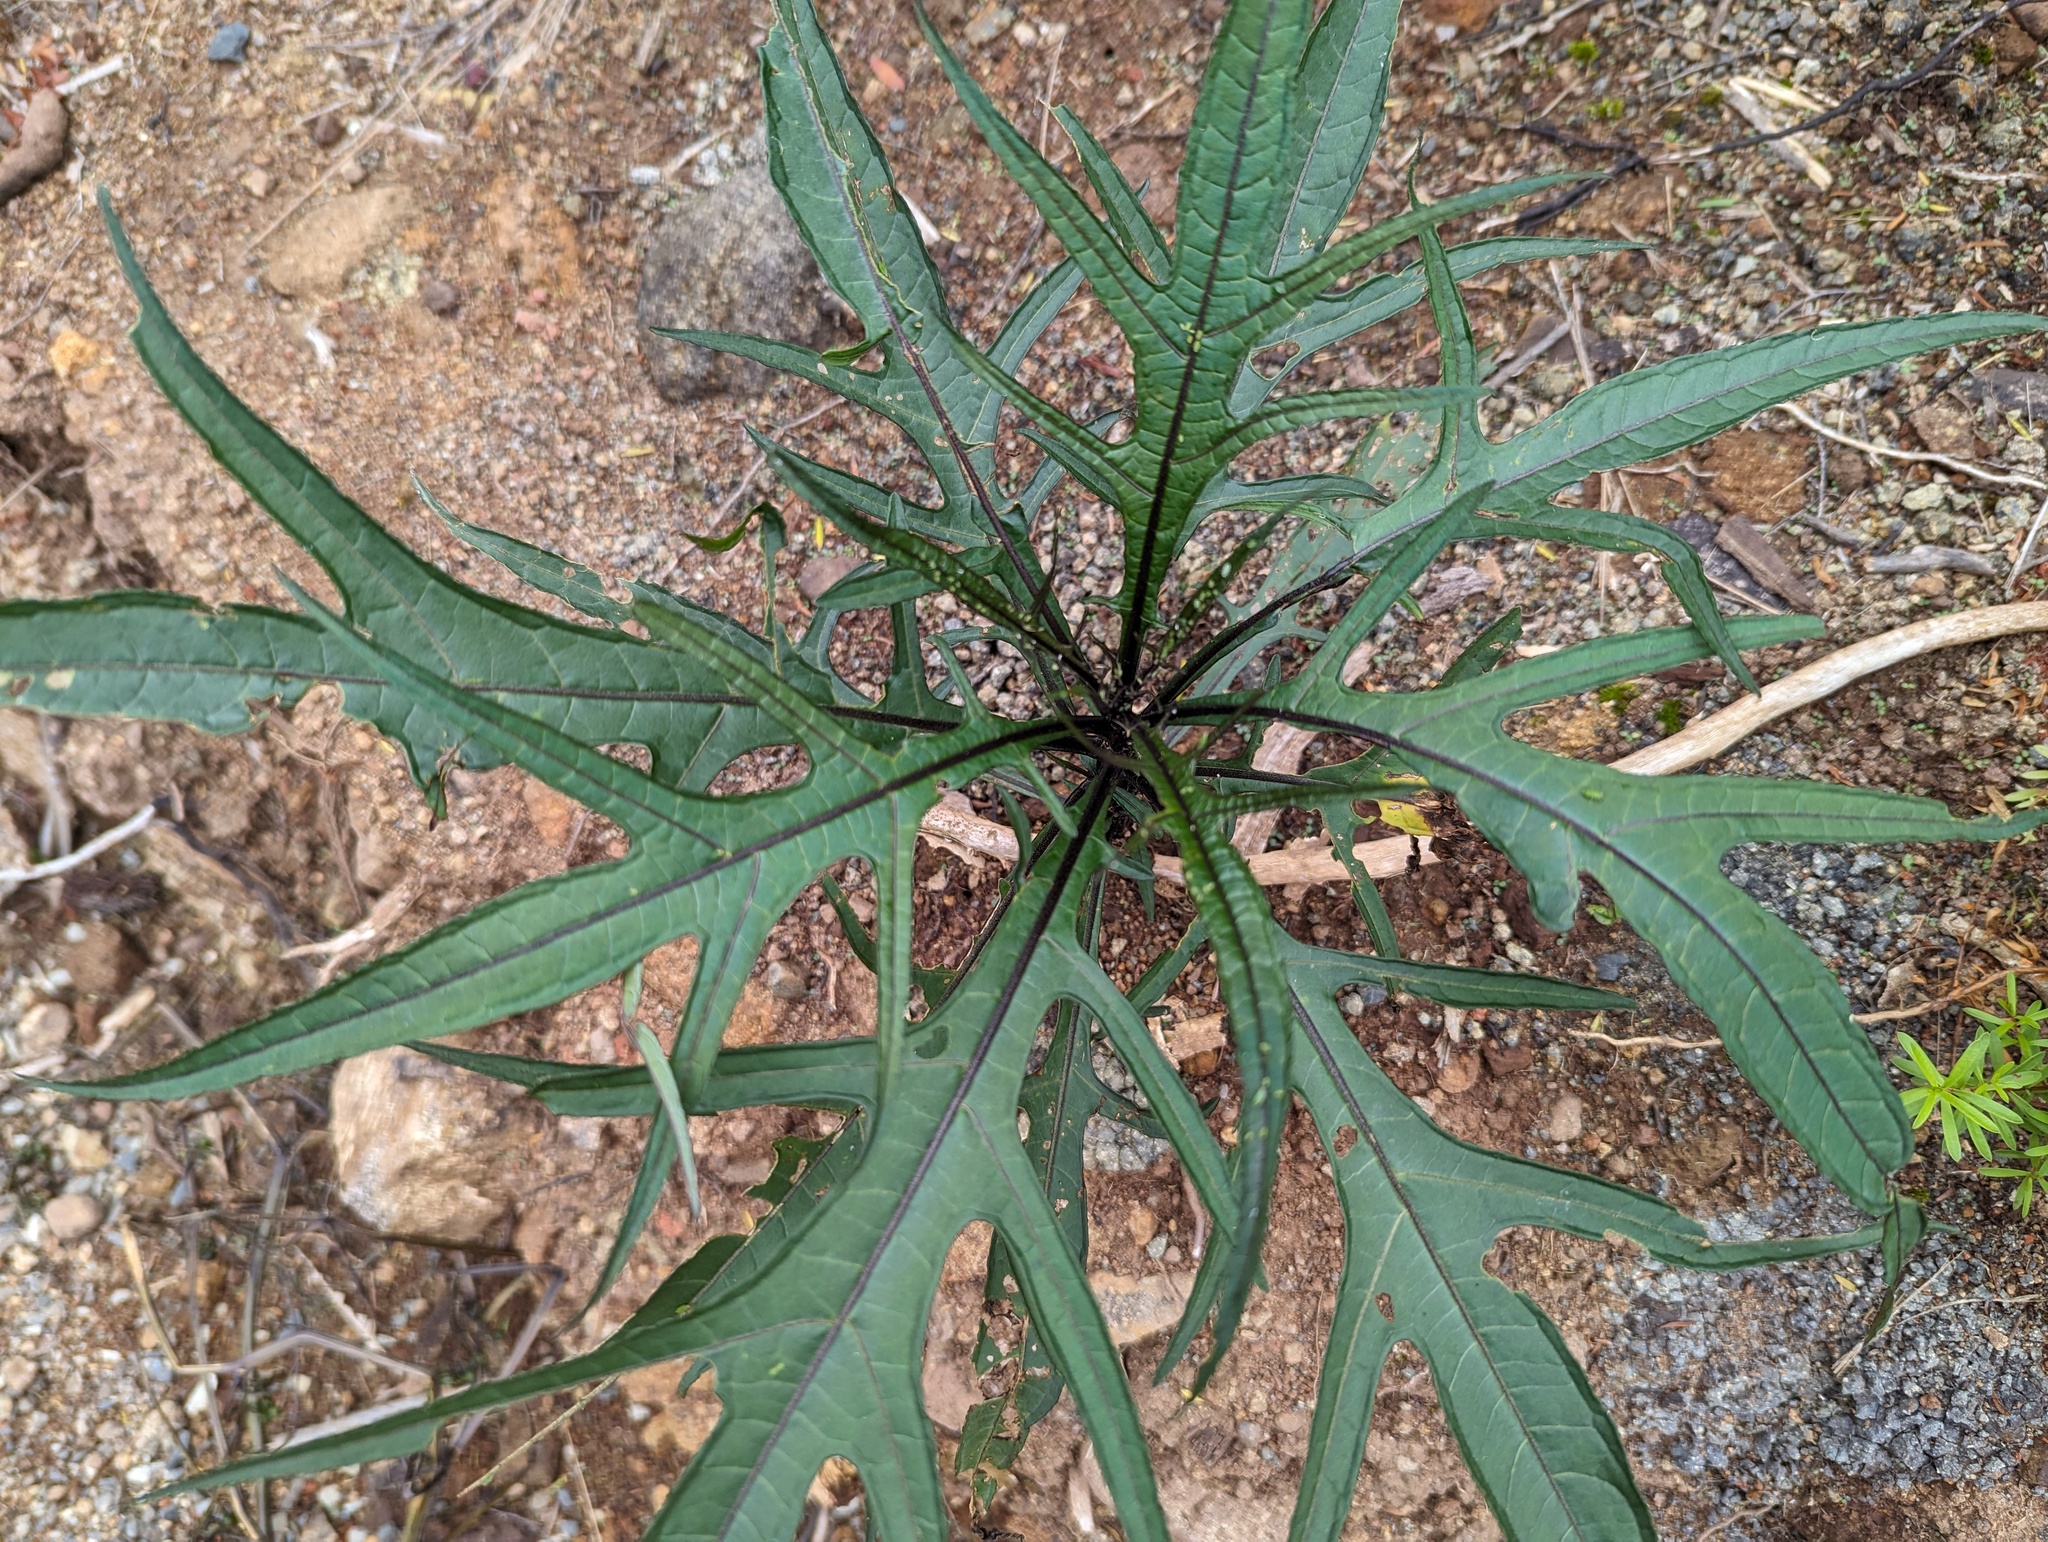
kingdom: Plantae
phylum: Tracheophyta
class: Magnoliopsida
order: Solanales
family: Solanaceae
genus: Solanum
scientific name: Solanum
